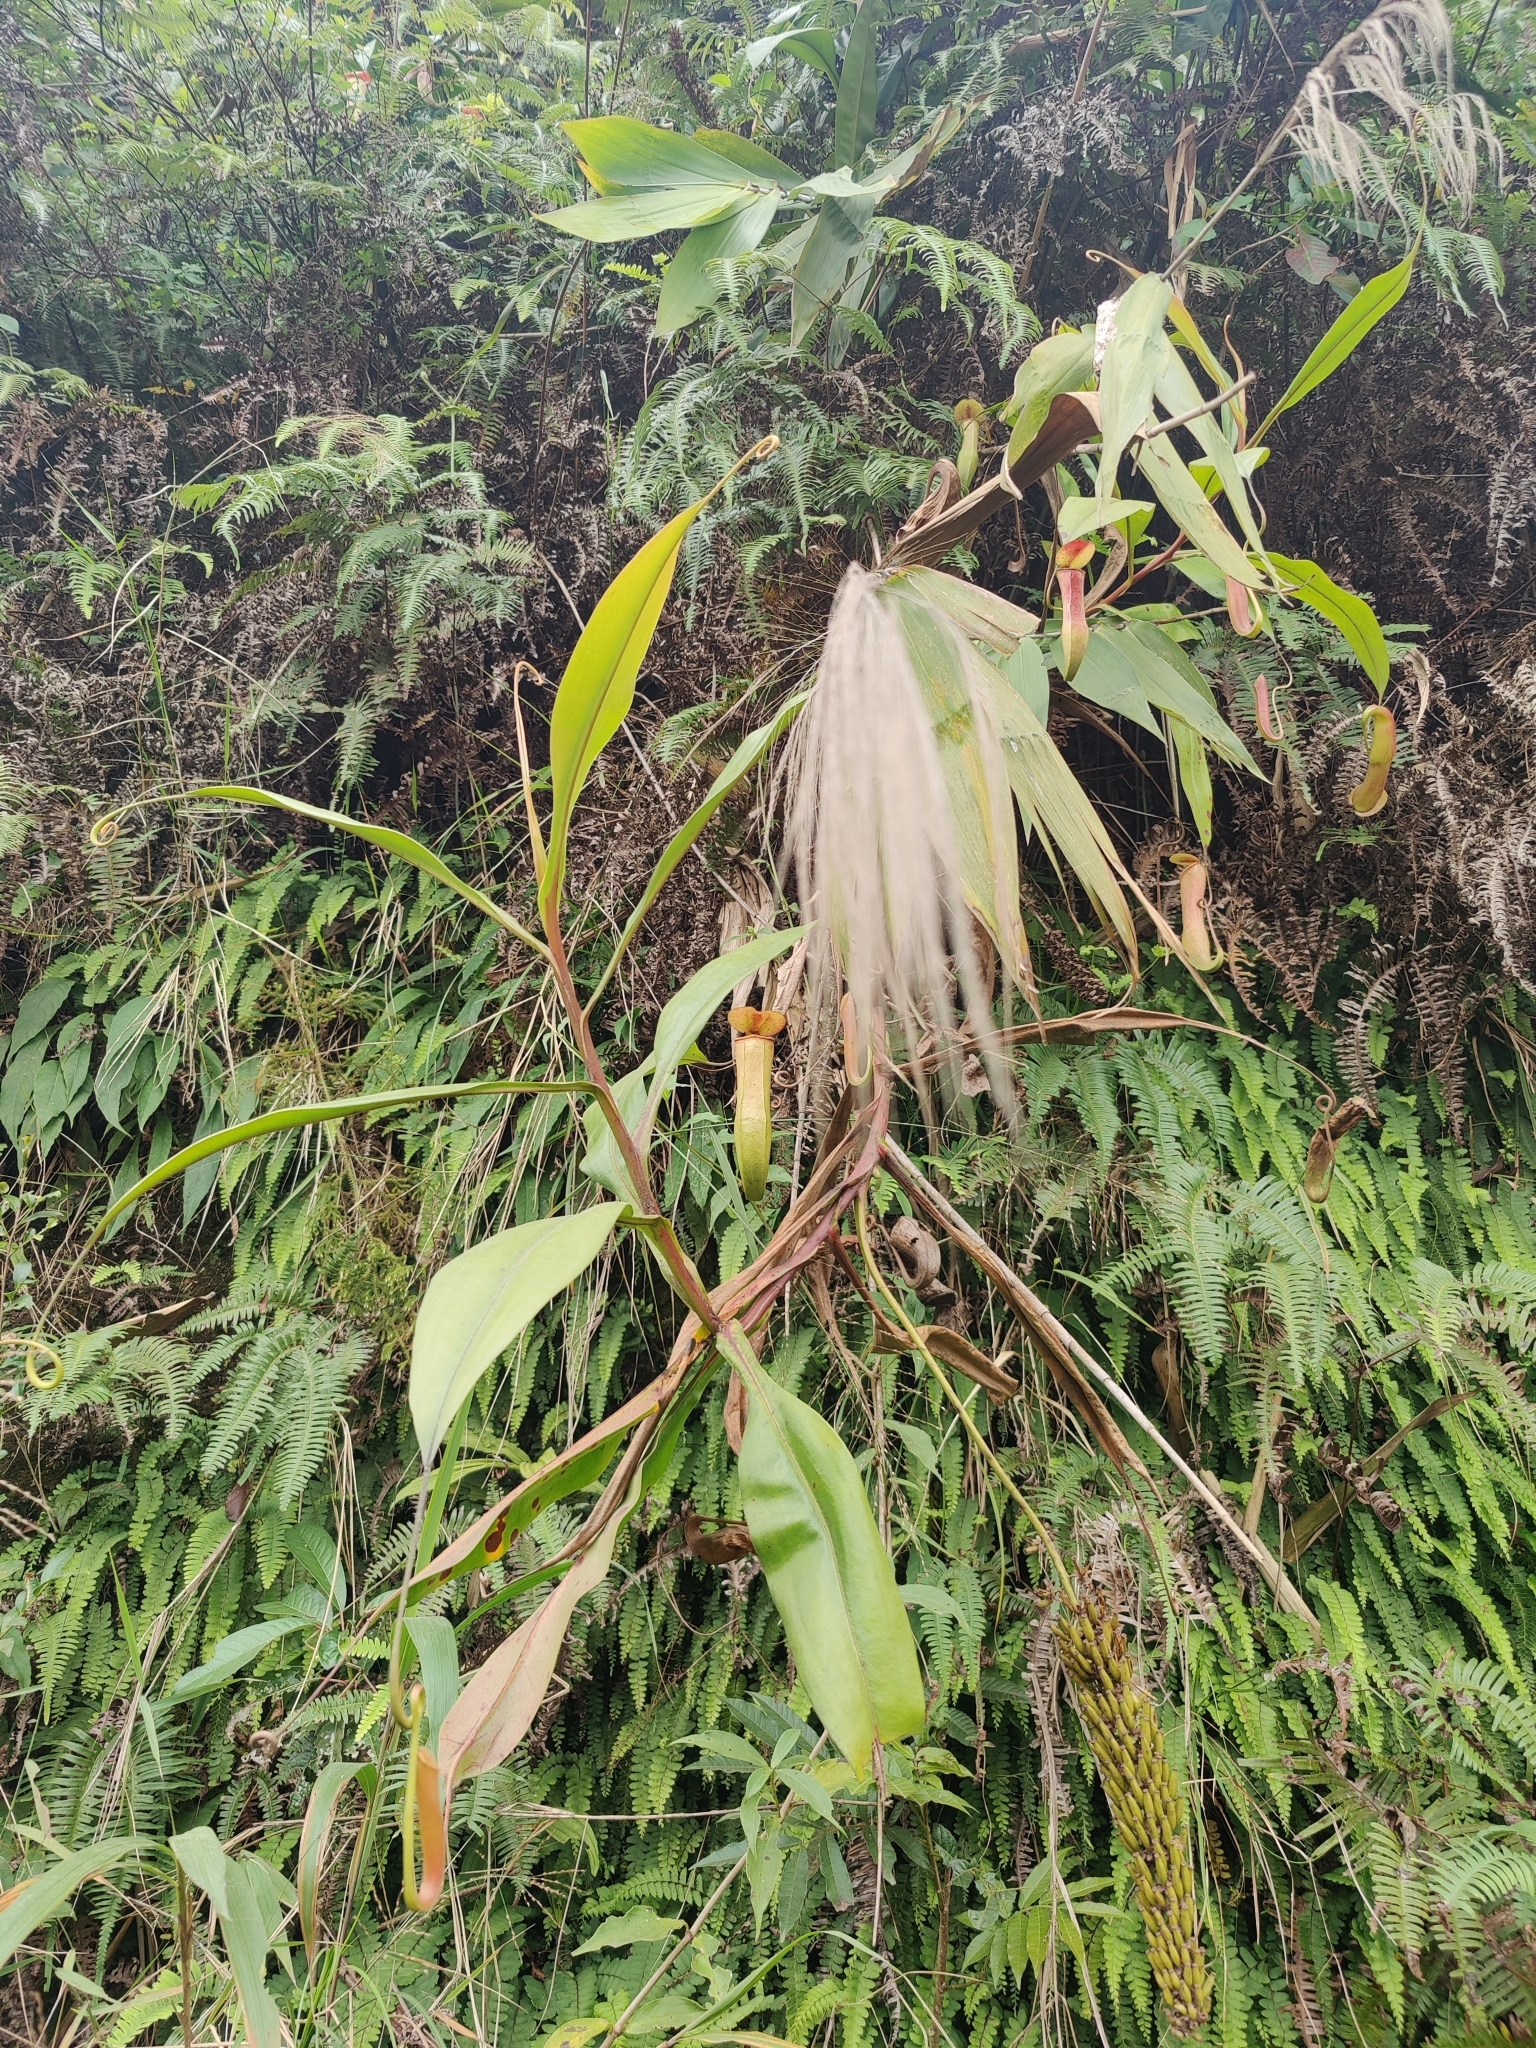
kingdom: Plantae
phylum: Tracheophyta
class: Magnoliopsida
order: Caryophyllales
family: Nepenthaceae
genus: Nepenthes
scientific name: Nepenthes khasiana
